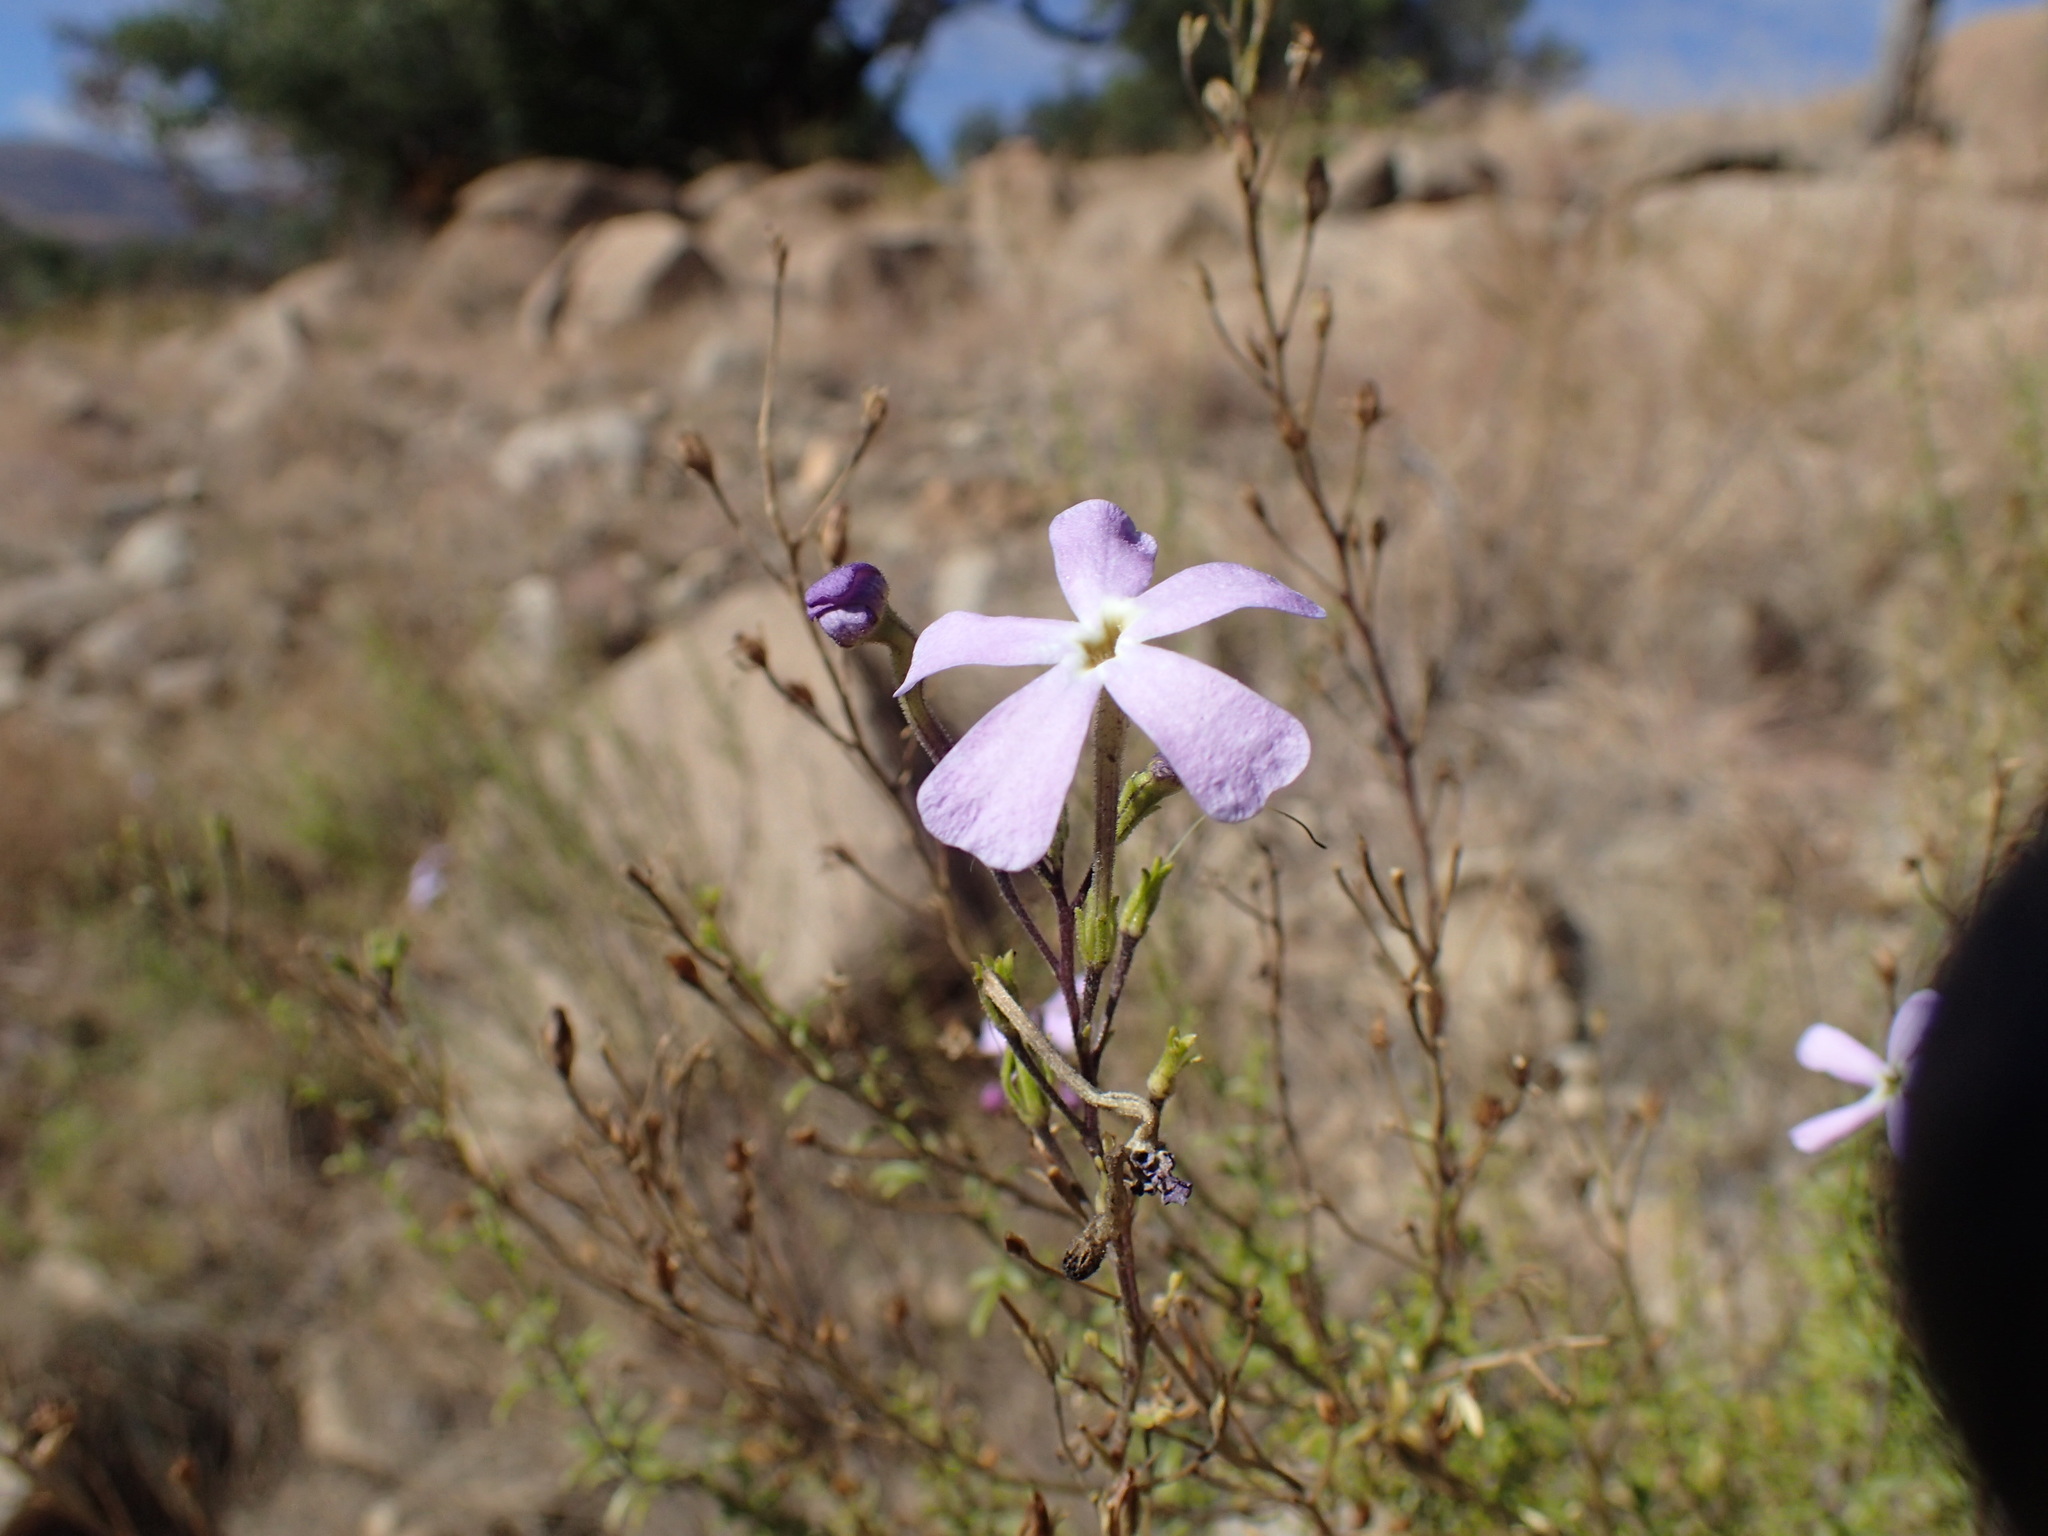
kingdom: Plantae
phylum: Tracheophyta
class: Magnoliopsida
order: Lamiales
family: Scrophulariaceae
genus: Jamesbrittenia
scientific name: Jamesbrittenia macrantha
